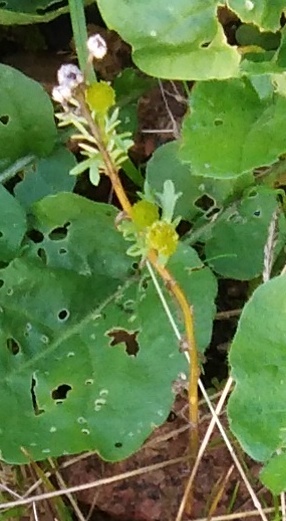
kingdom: Plantae
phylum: Tracheophyta
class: Magnoliopsida
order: Asterales
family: Asteraceae
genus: Matricaria
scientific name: Matricaria discoidea
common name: Disc mayweed
